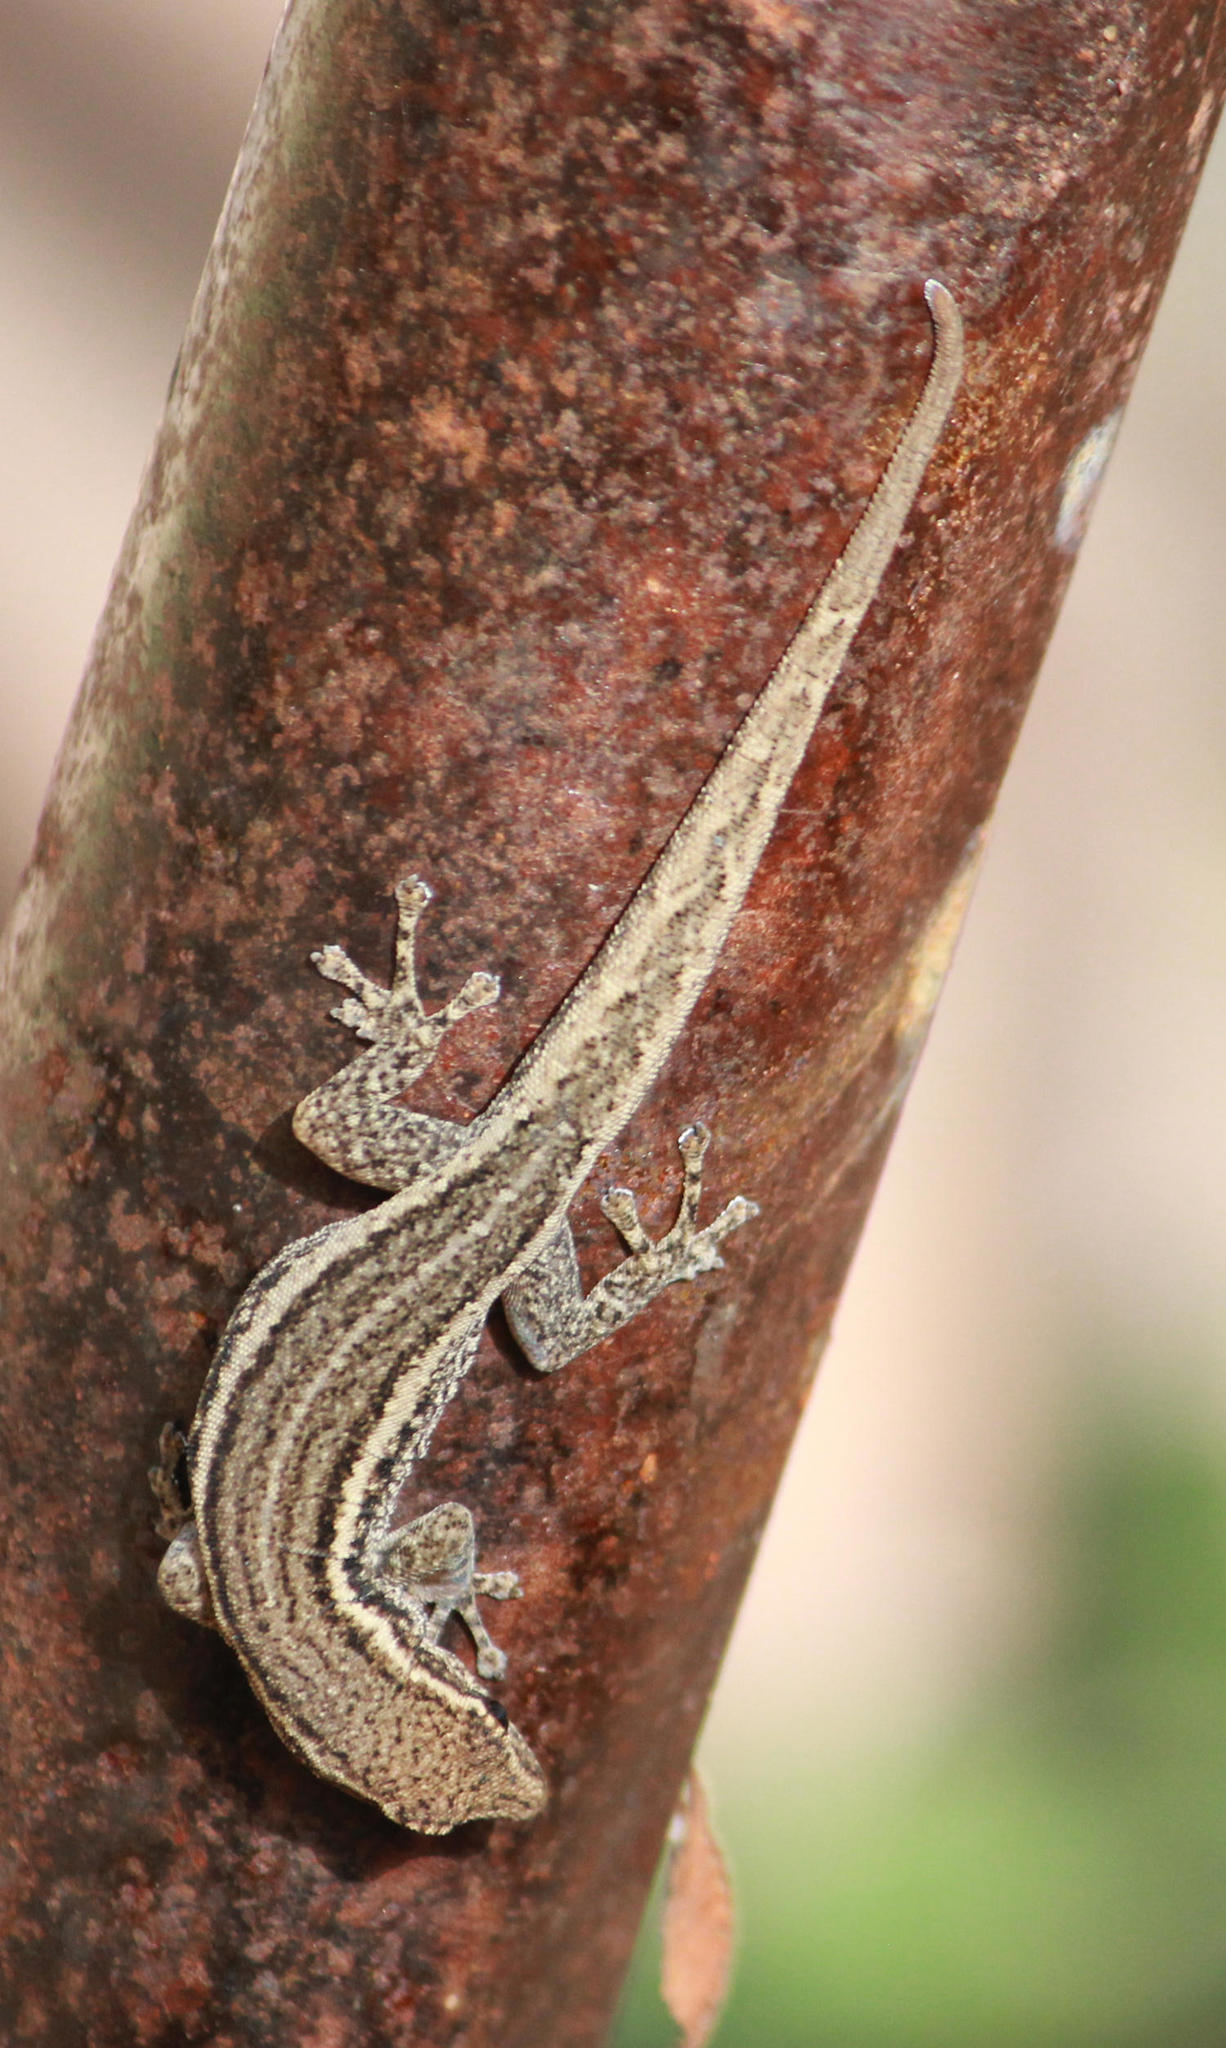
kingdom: Animalia
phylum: Chordata
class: Squamata
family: Gekkonidae
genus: Lygodactylus
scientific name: Lygodactylus capensis
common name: Cape dwarf gecko
